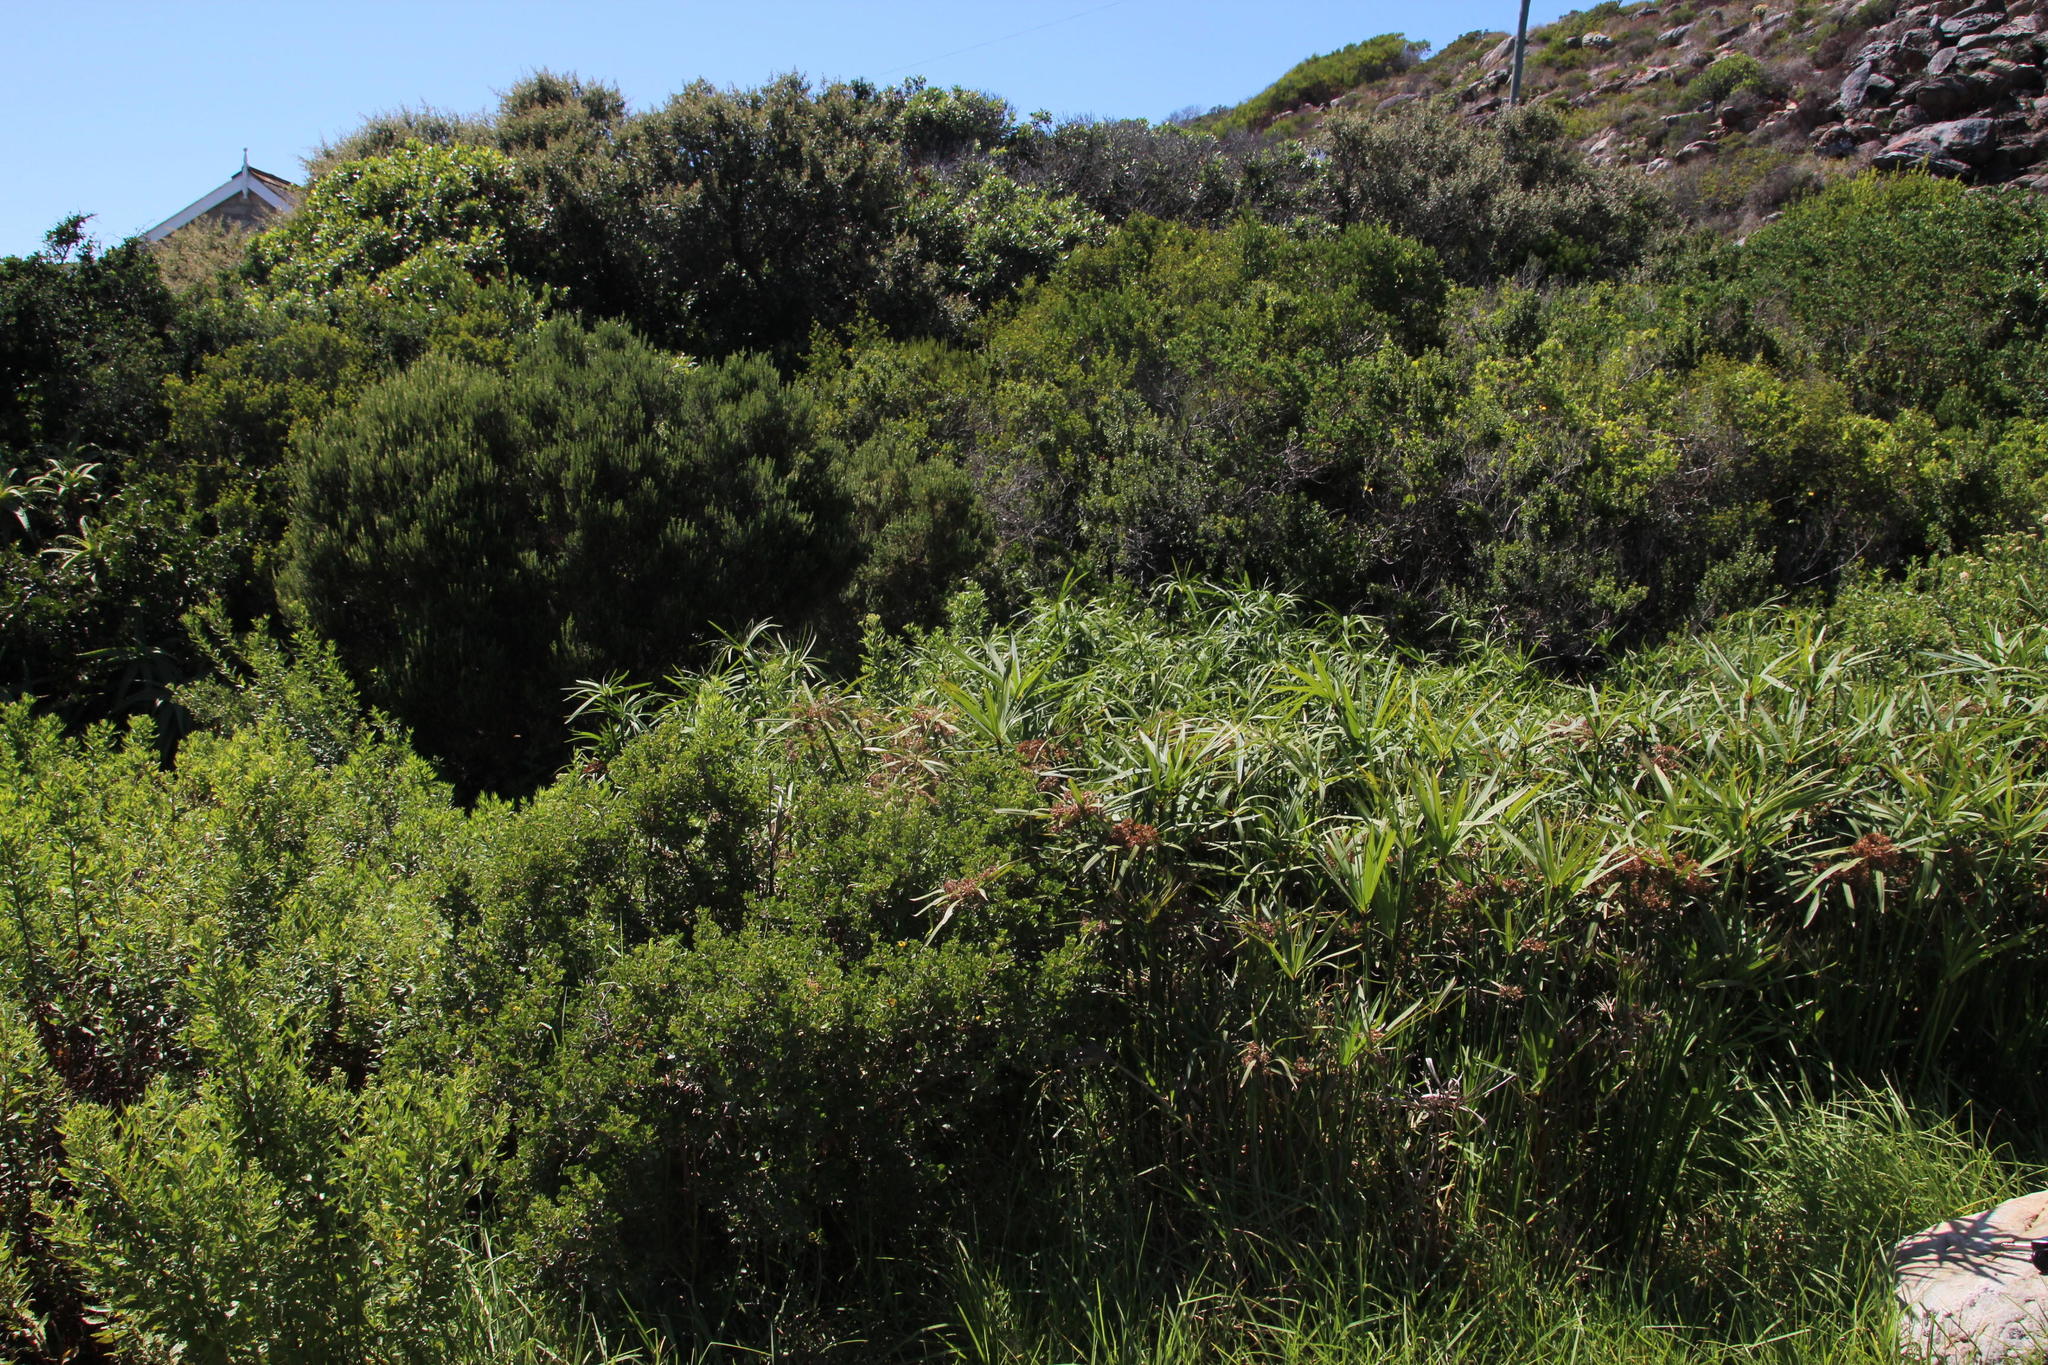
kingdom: Plantae
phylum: Tracheophyta
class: Liliopsida
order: Poales
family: Cyperaceae
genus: Cyperus
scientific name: Cyperus textilis
